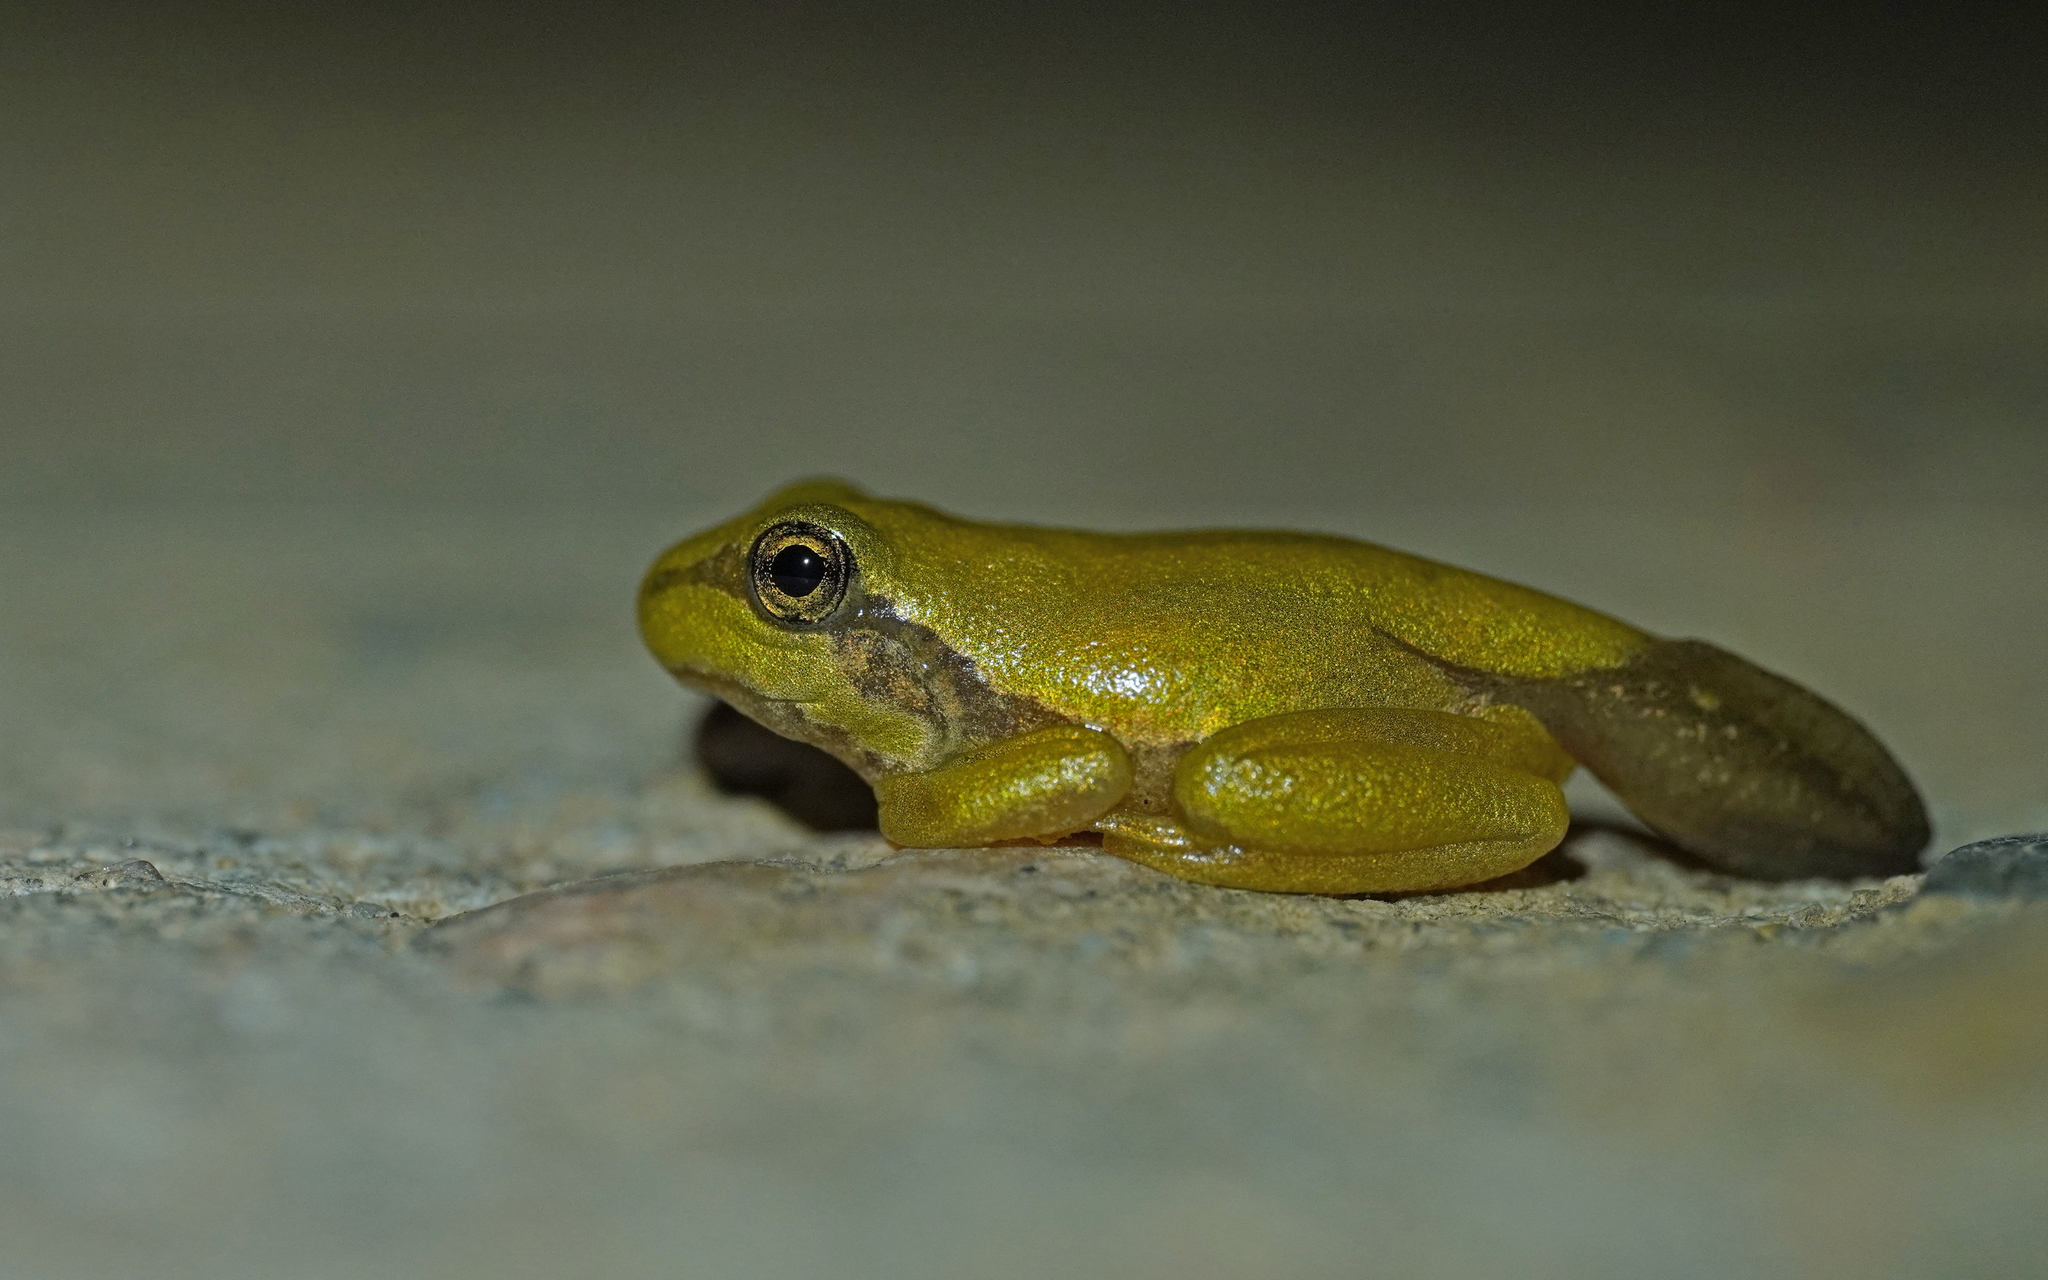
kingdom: Animalia
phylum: Chordata
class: Amphibia
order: Anura
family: Hylidae
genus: Hyla
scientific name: Hyla sarda
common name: Sardinian tree frog
